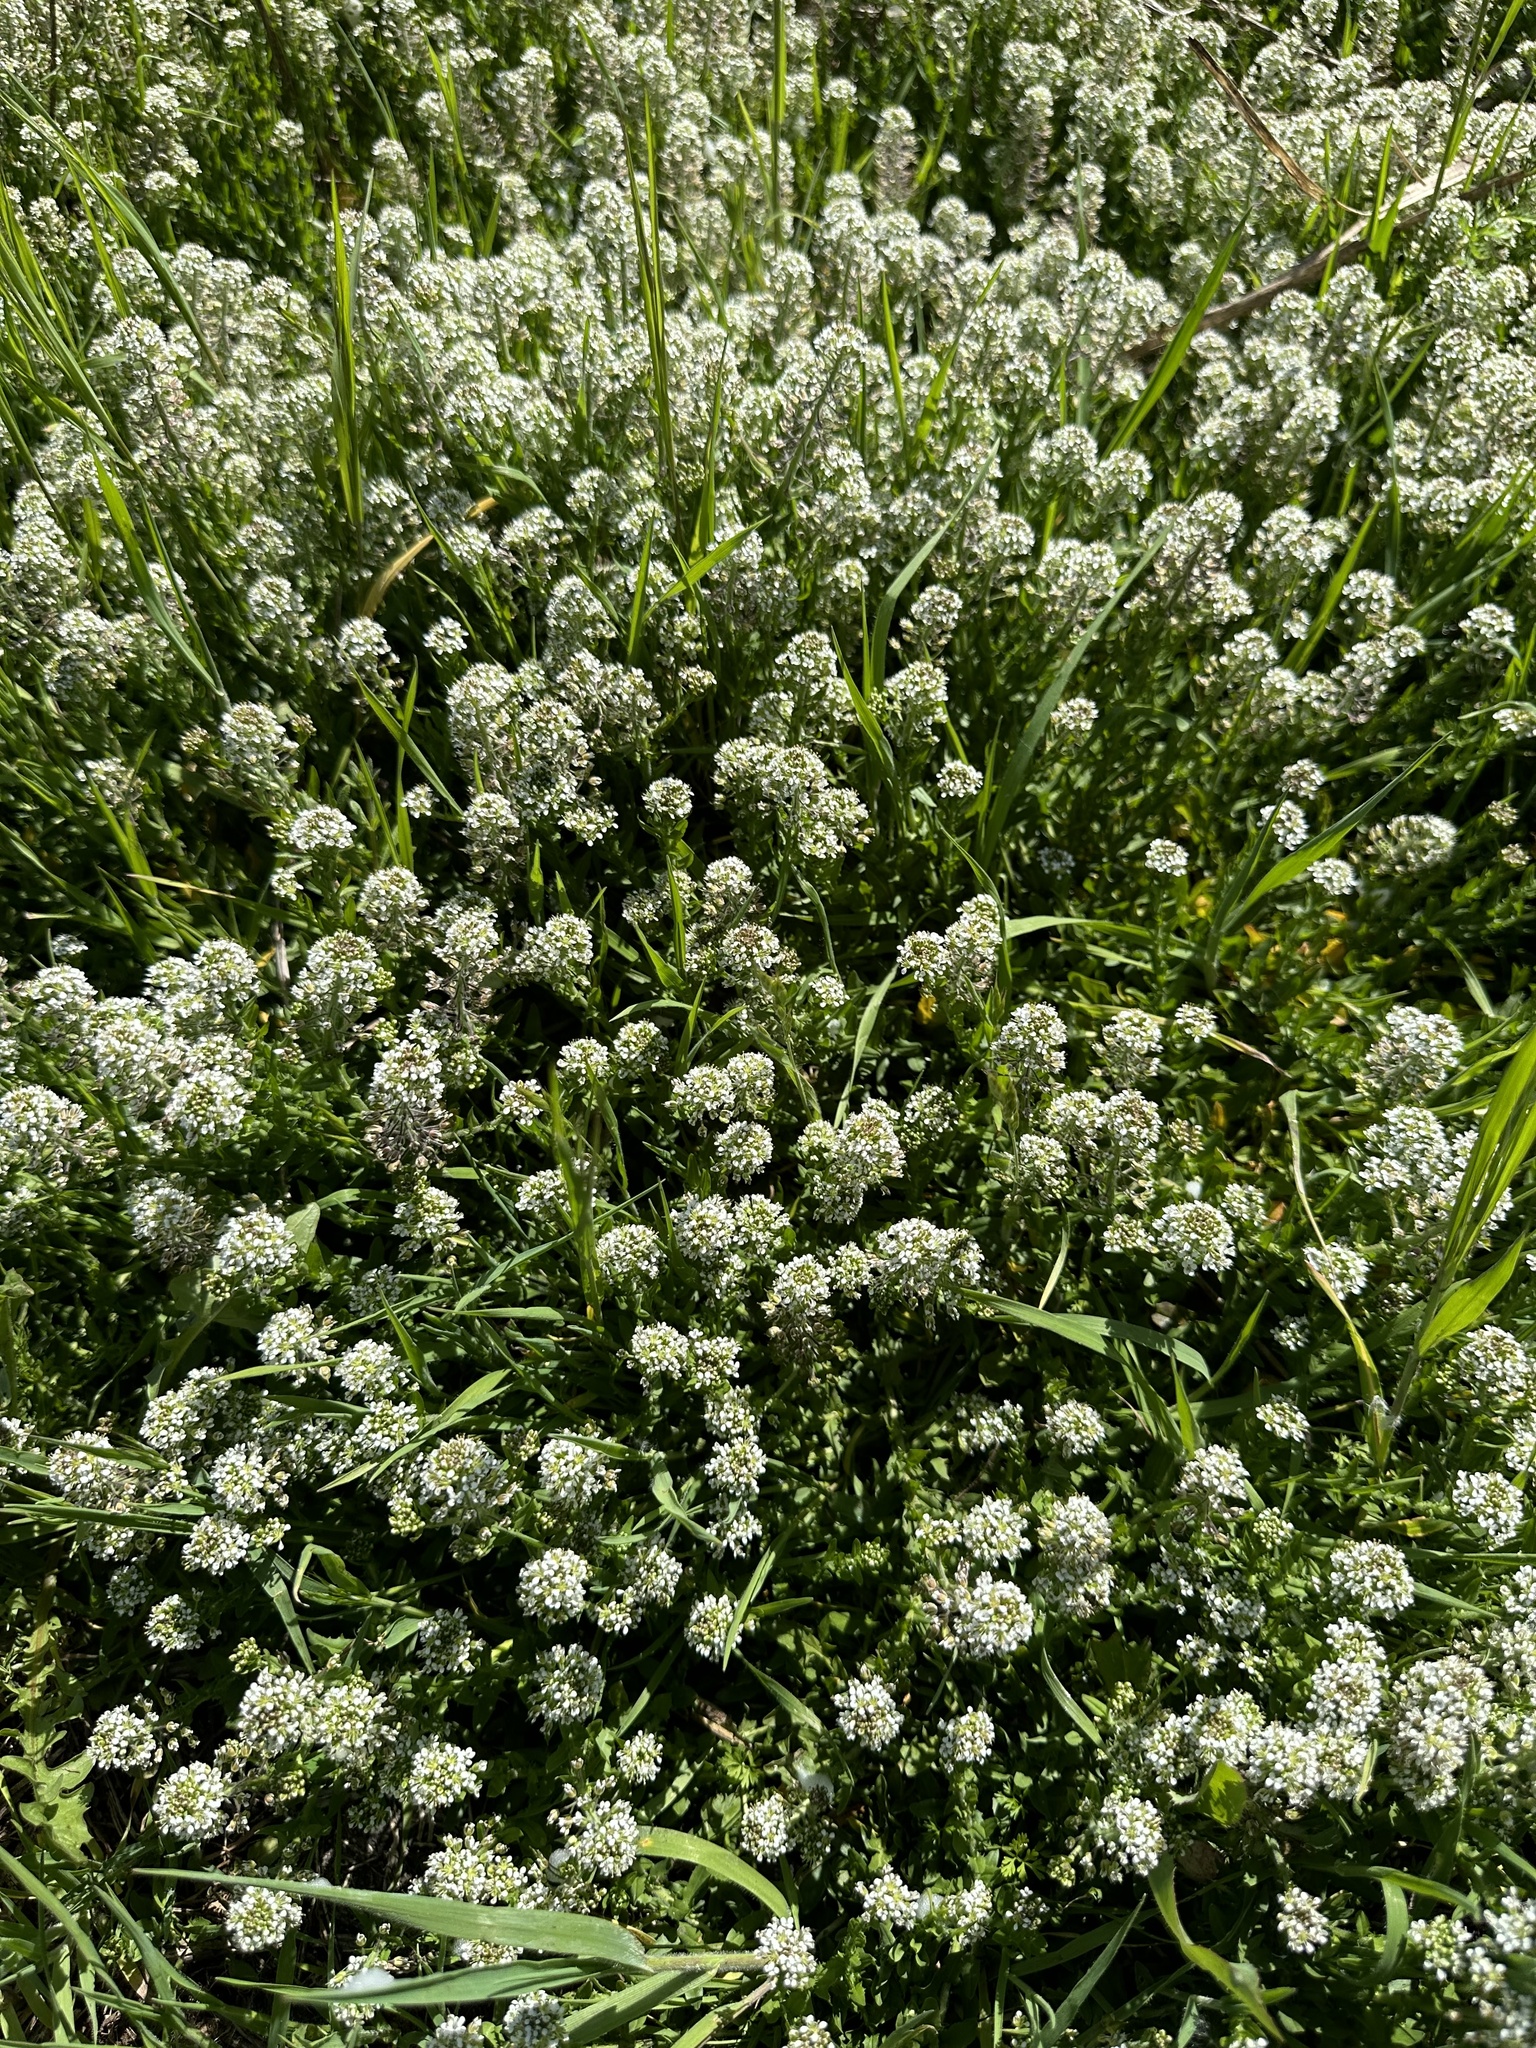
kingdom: Plantae
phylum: Tracheophyta
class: Magnoliopsida
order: Brassicales
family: Brassicaceae
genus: Lepidium
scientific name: Lepidium heterophyllum
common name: Smith's pepperwort
